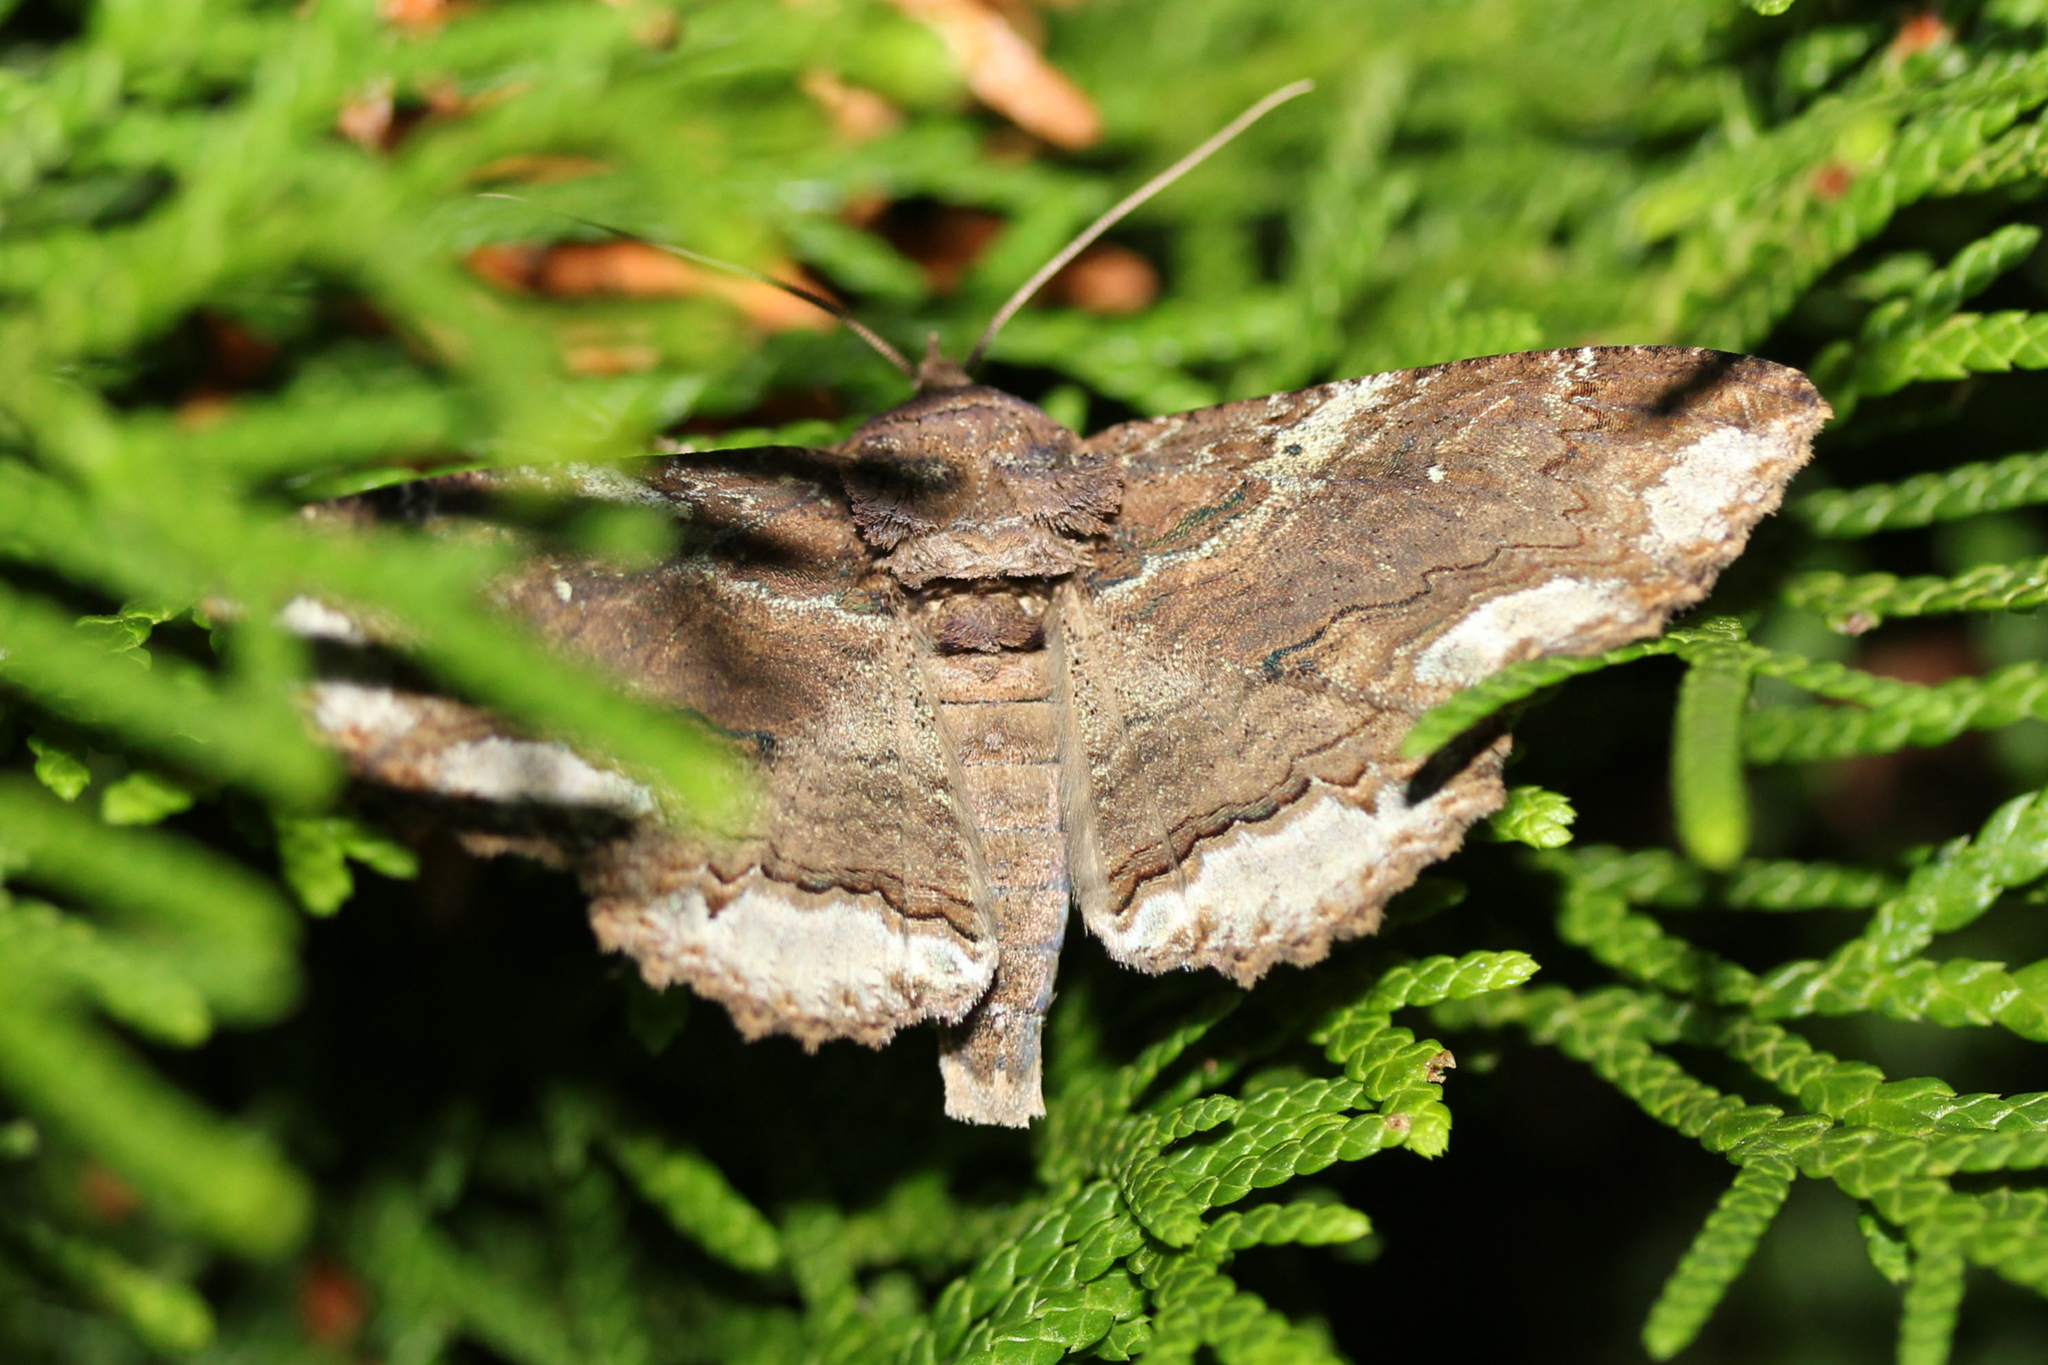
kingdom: Animalia
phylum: Arthropoda
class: Insecta
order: Lepidoptera
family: Erebidae
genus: Zale
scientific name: Zale lunata
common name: Lunate zale moth
